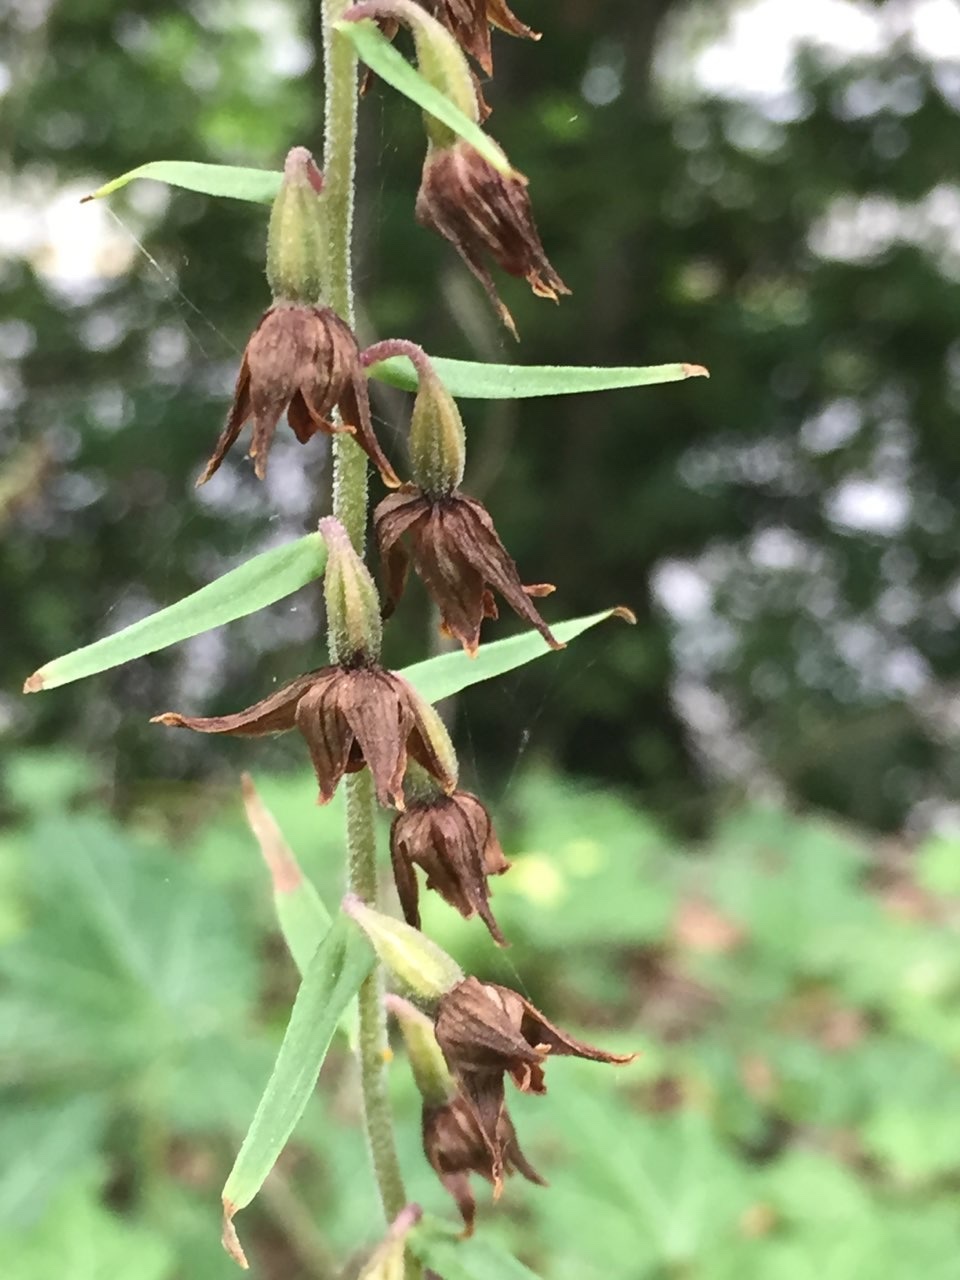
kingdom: Plantae
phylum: Tracheophyta
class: Liliopsida
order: Asparagales
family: Orchidaceae
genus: Epipactis
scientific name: Epipactis helleborine
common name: Broad-leaved helleborine
